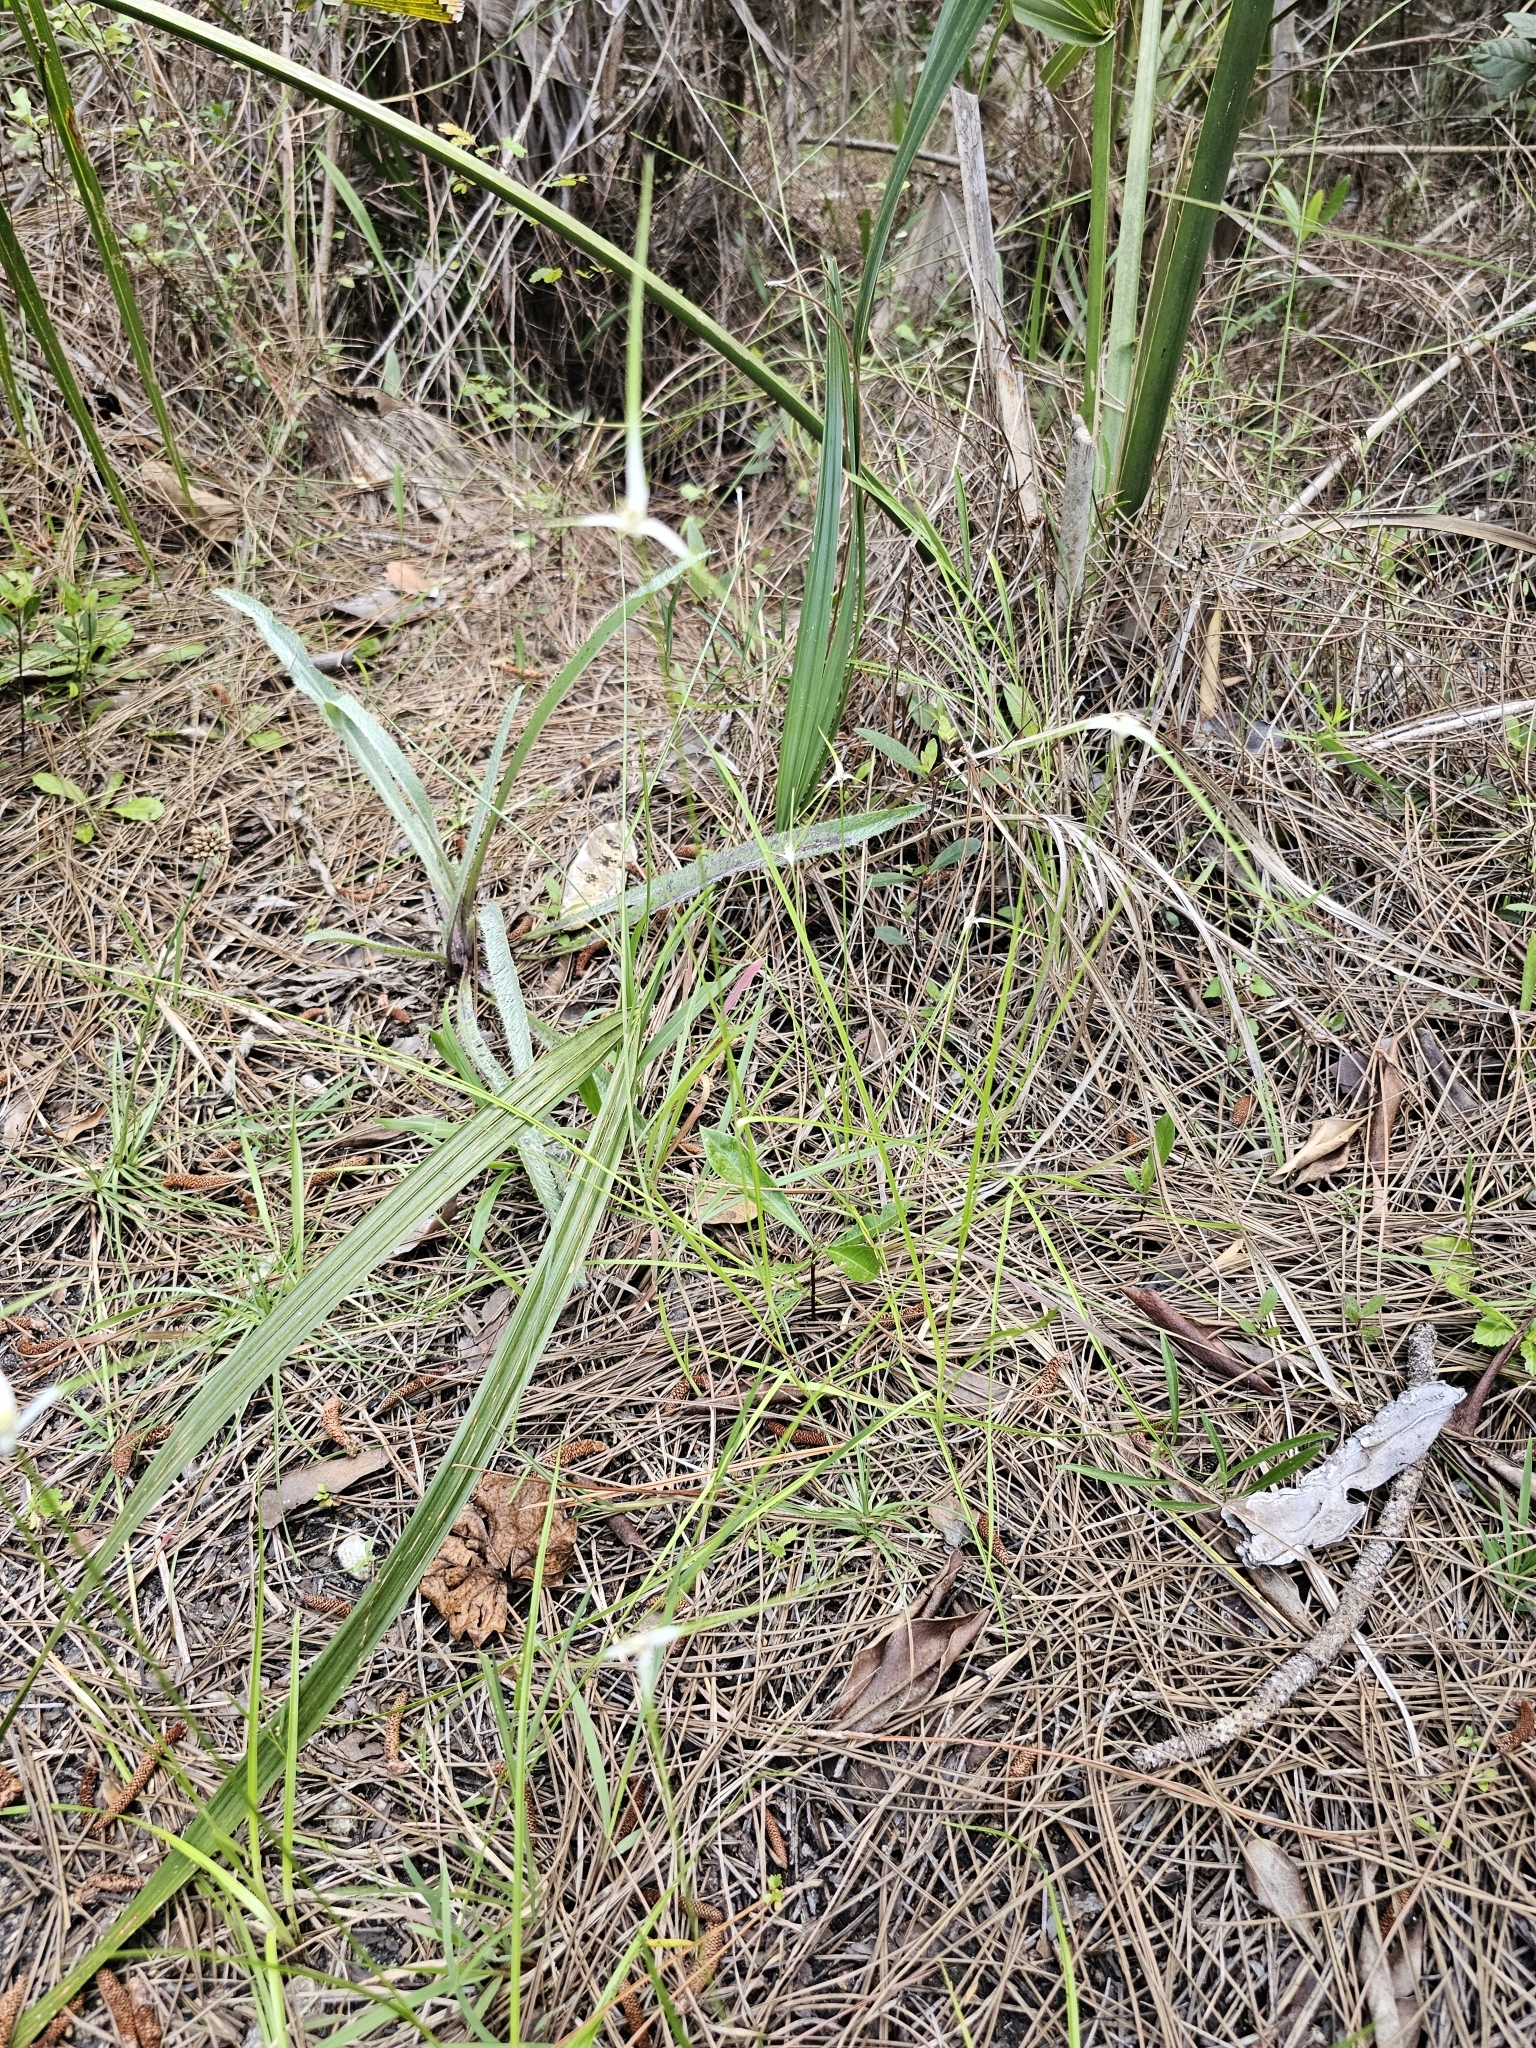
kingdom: Plantae
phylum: Tracheophyta
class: Liliopsida
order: Poales
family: Cyperaceae
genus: Rhynchospora
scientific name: Rhynchospora colorata
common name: Star sedge
